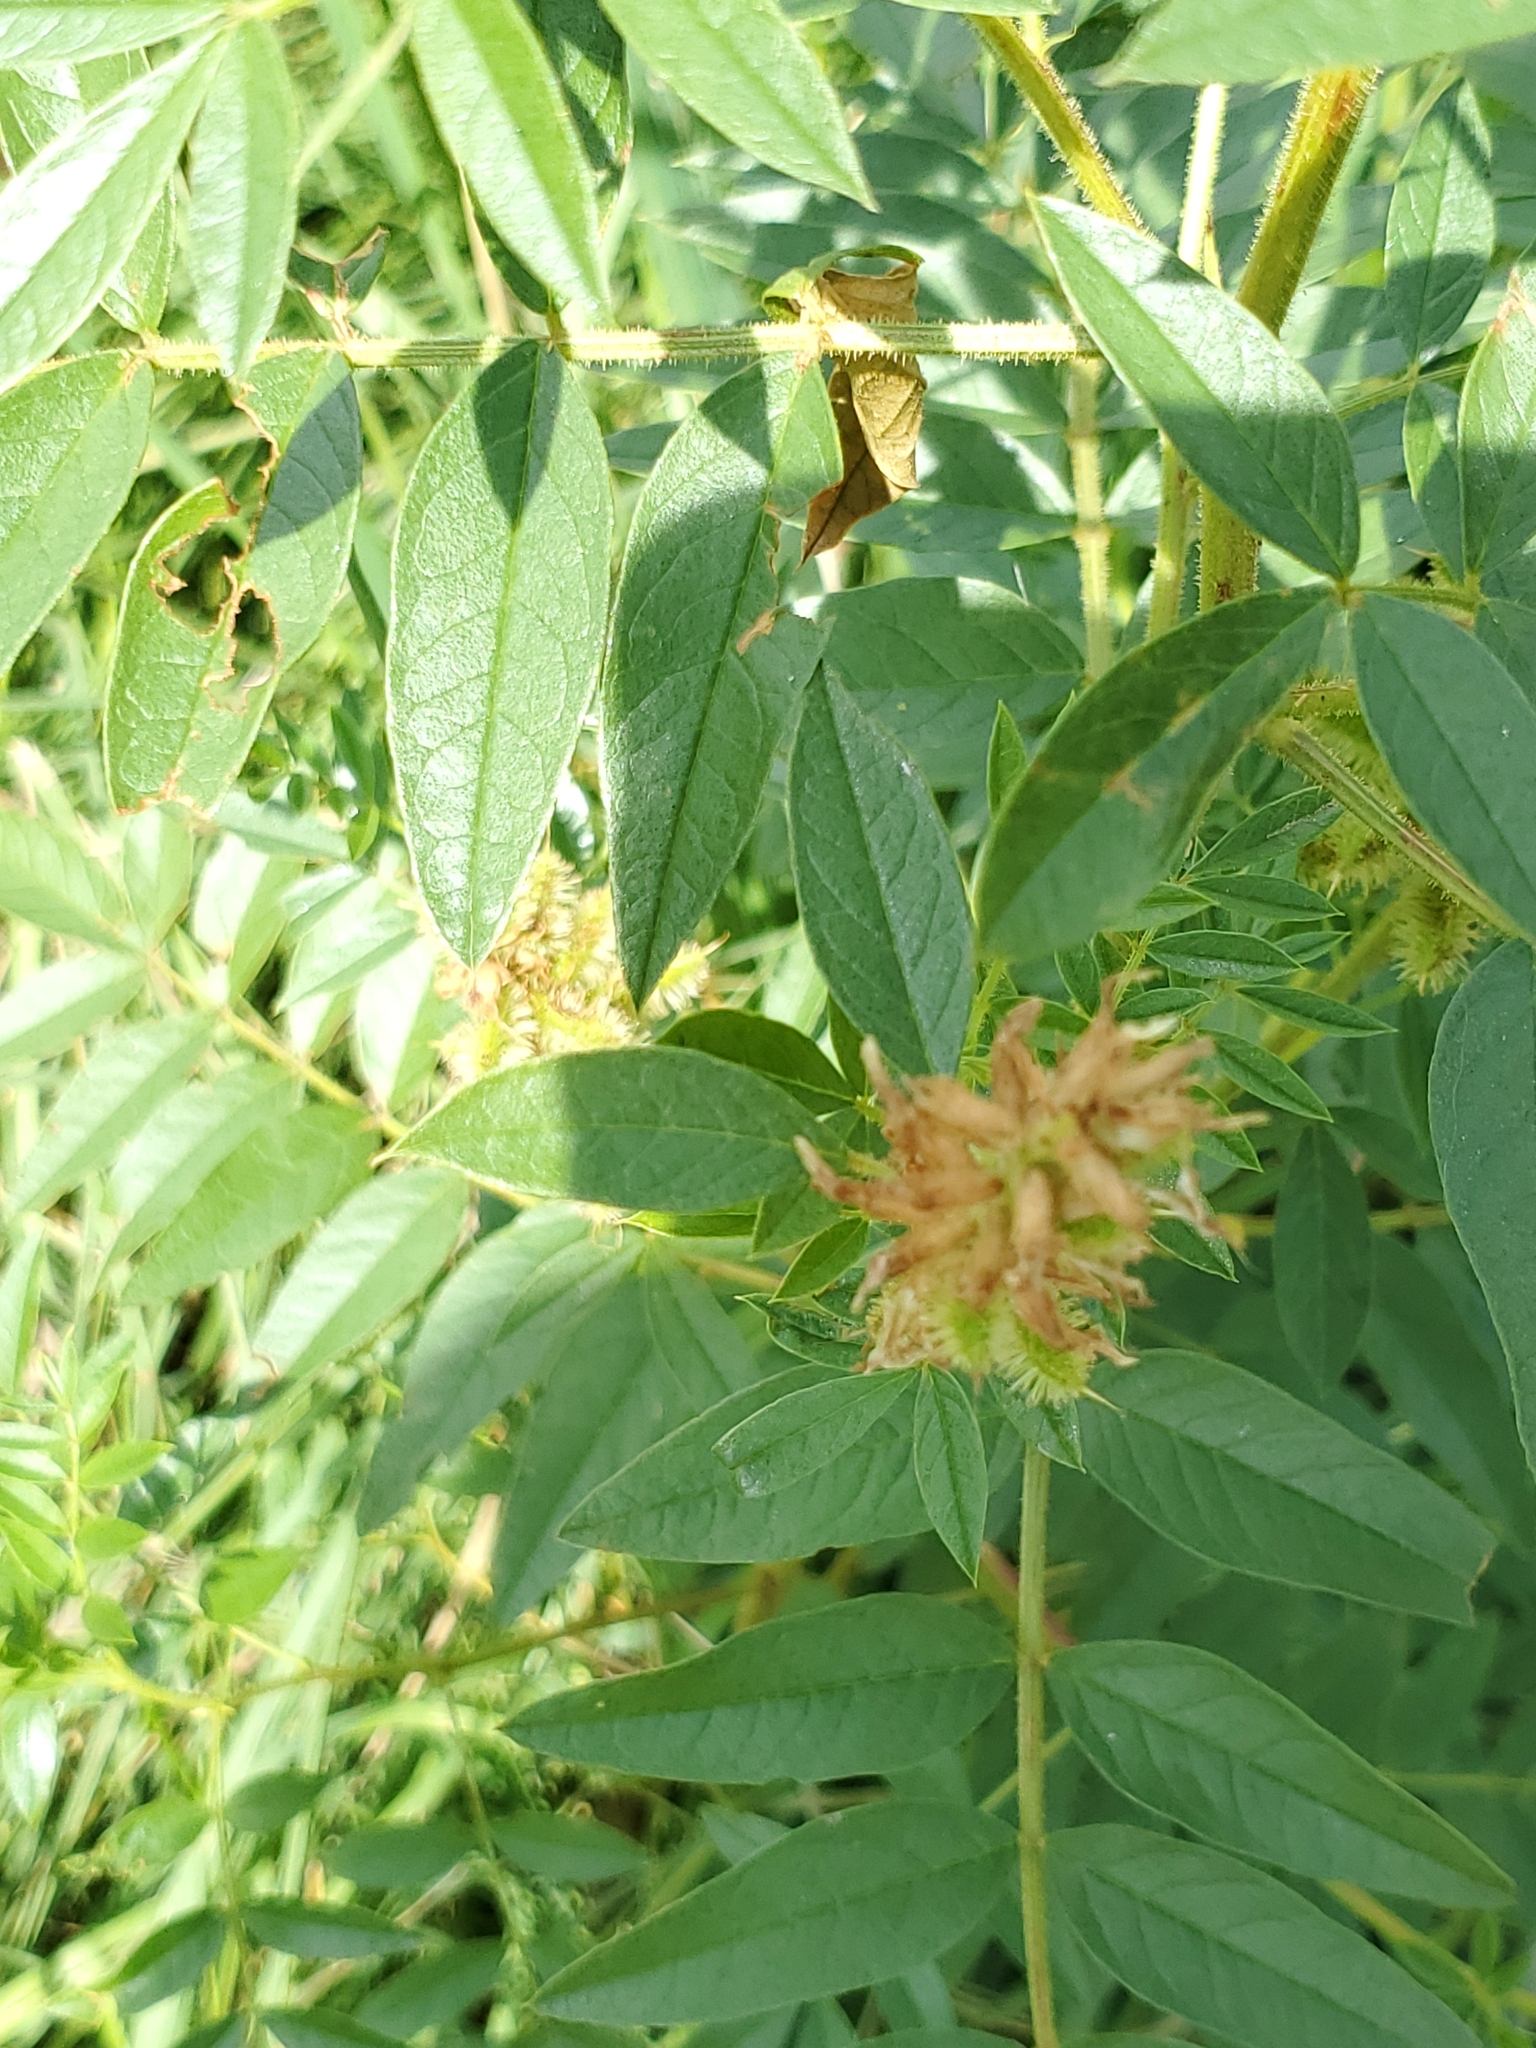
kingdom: Plantae
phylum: Tracheophyta
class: Magnoliopsida
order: Fabales
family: Fabaceae
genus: Glycyrrhiza
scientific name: Glycyrrhiza lepidota
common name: American liquorice
